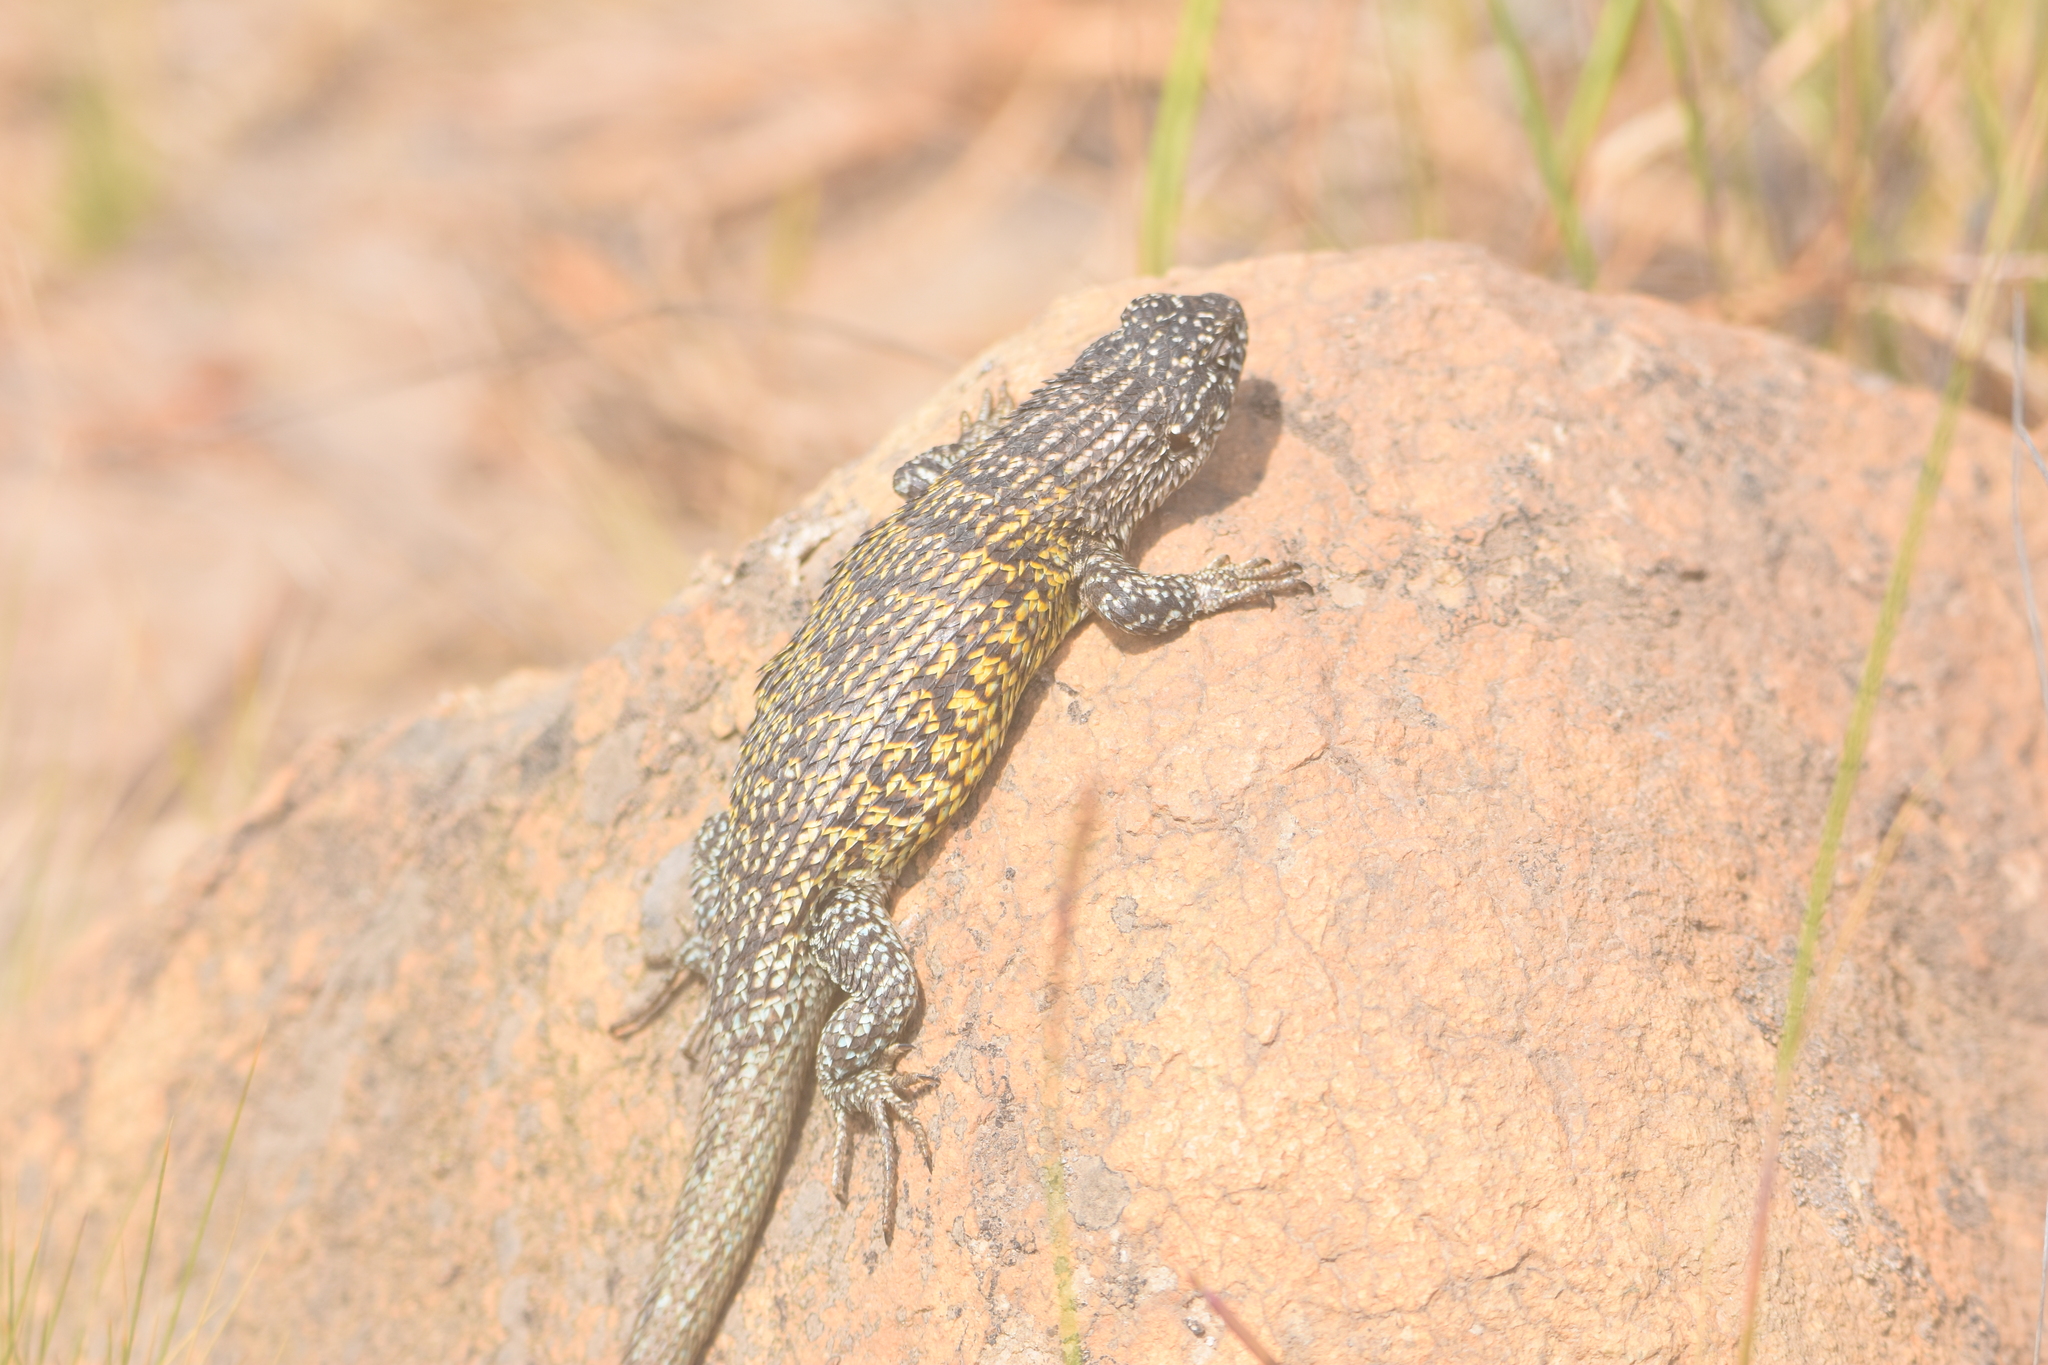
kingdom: Animalia
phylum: Chordata
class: Squamata
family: Liolaemidae
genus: Liolaemus
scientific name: Liolaemus nitidus
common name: Shining tree iguana
